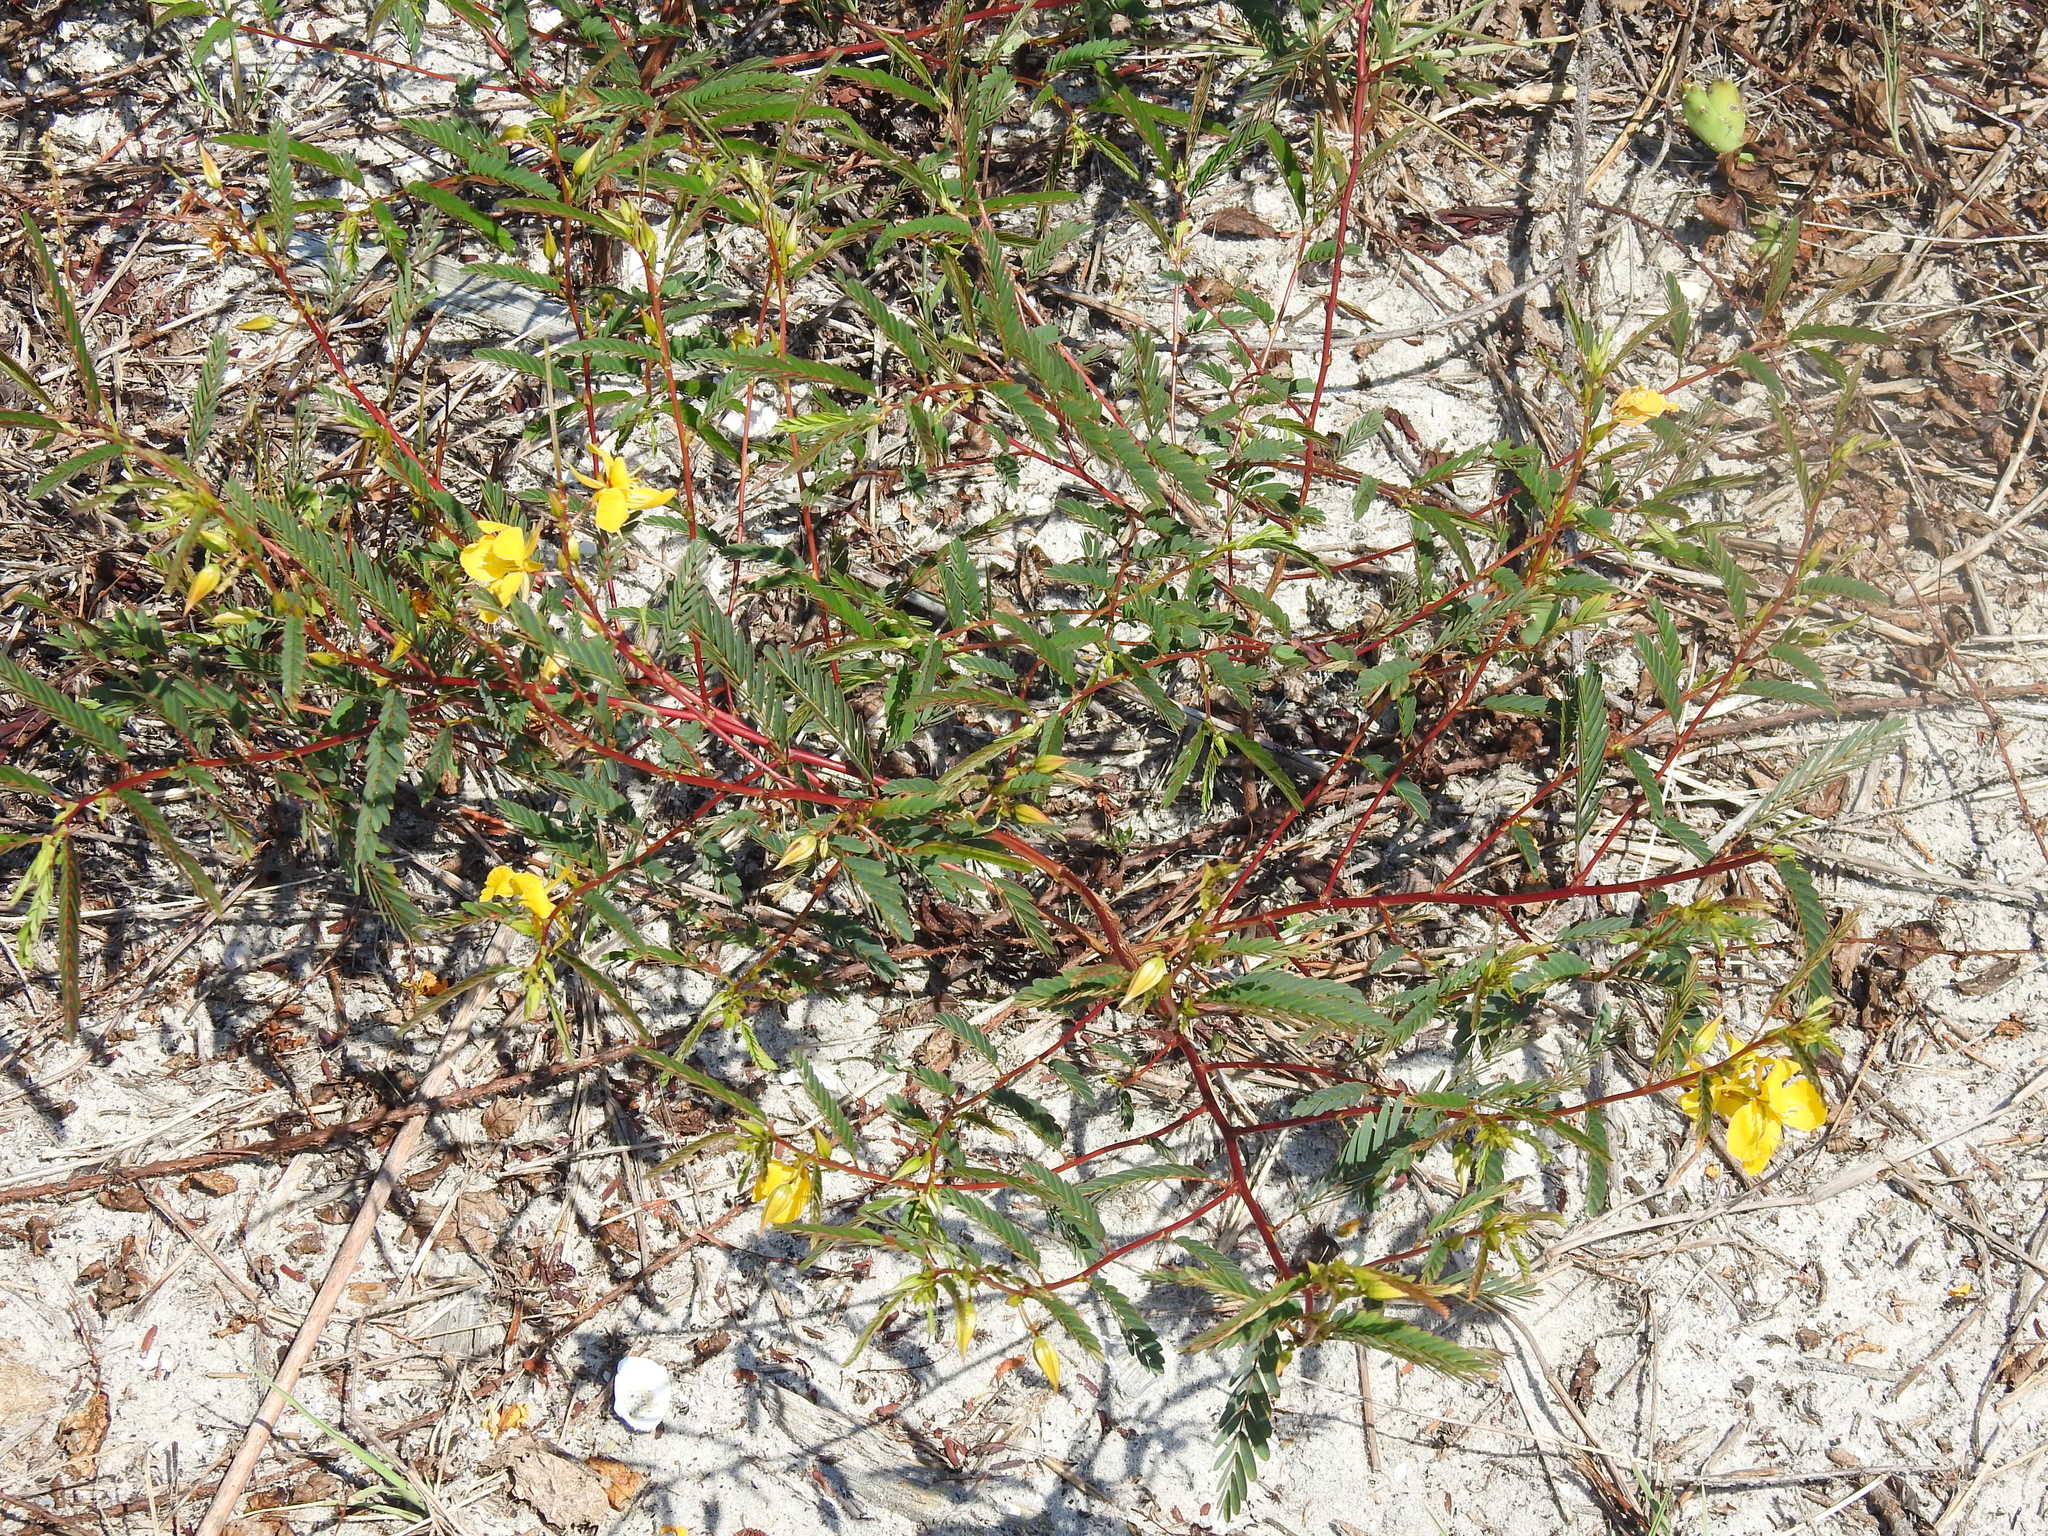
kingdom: Plantae
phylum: Tracheophyta
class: Magnoliopsida
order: Fabales
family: Fabaceae
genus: Chamaecrista
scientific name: Chamaecrista fasciculata
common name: Golden cassia
